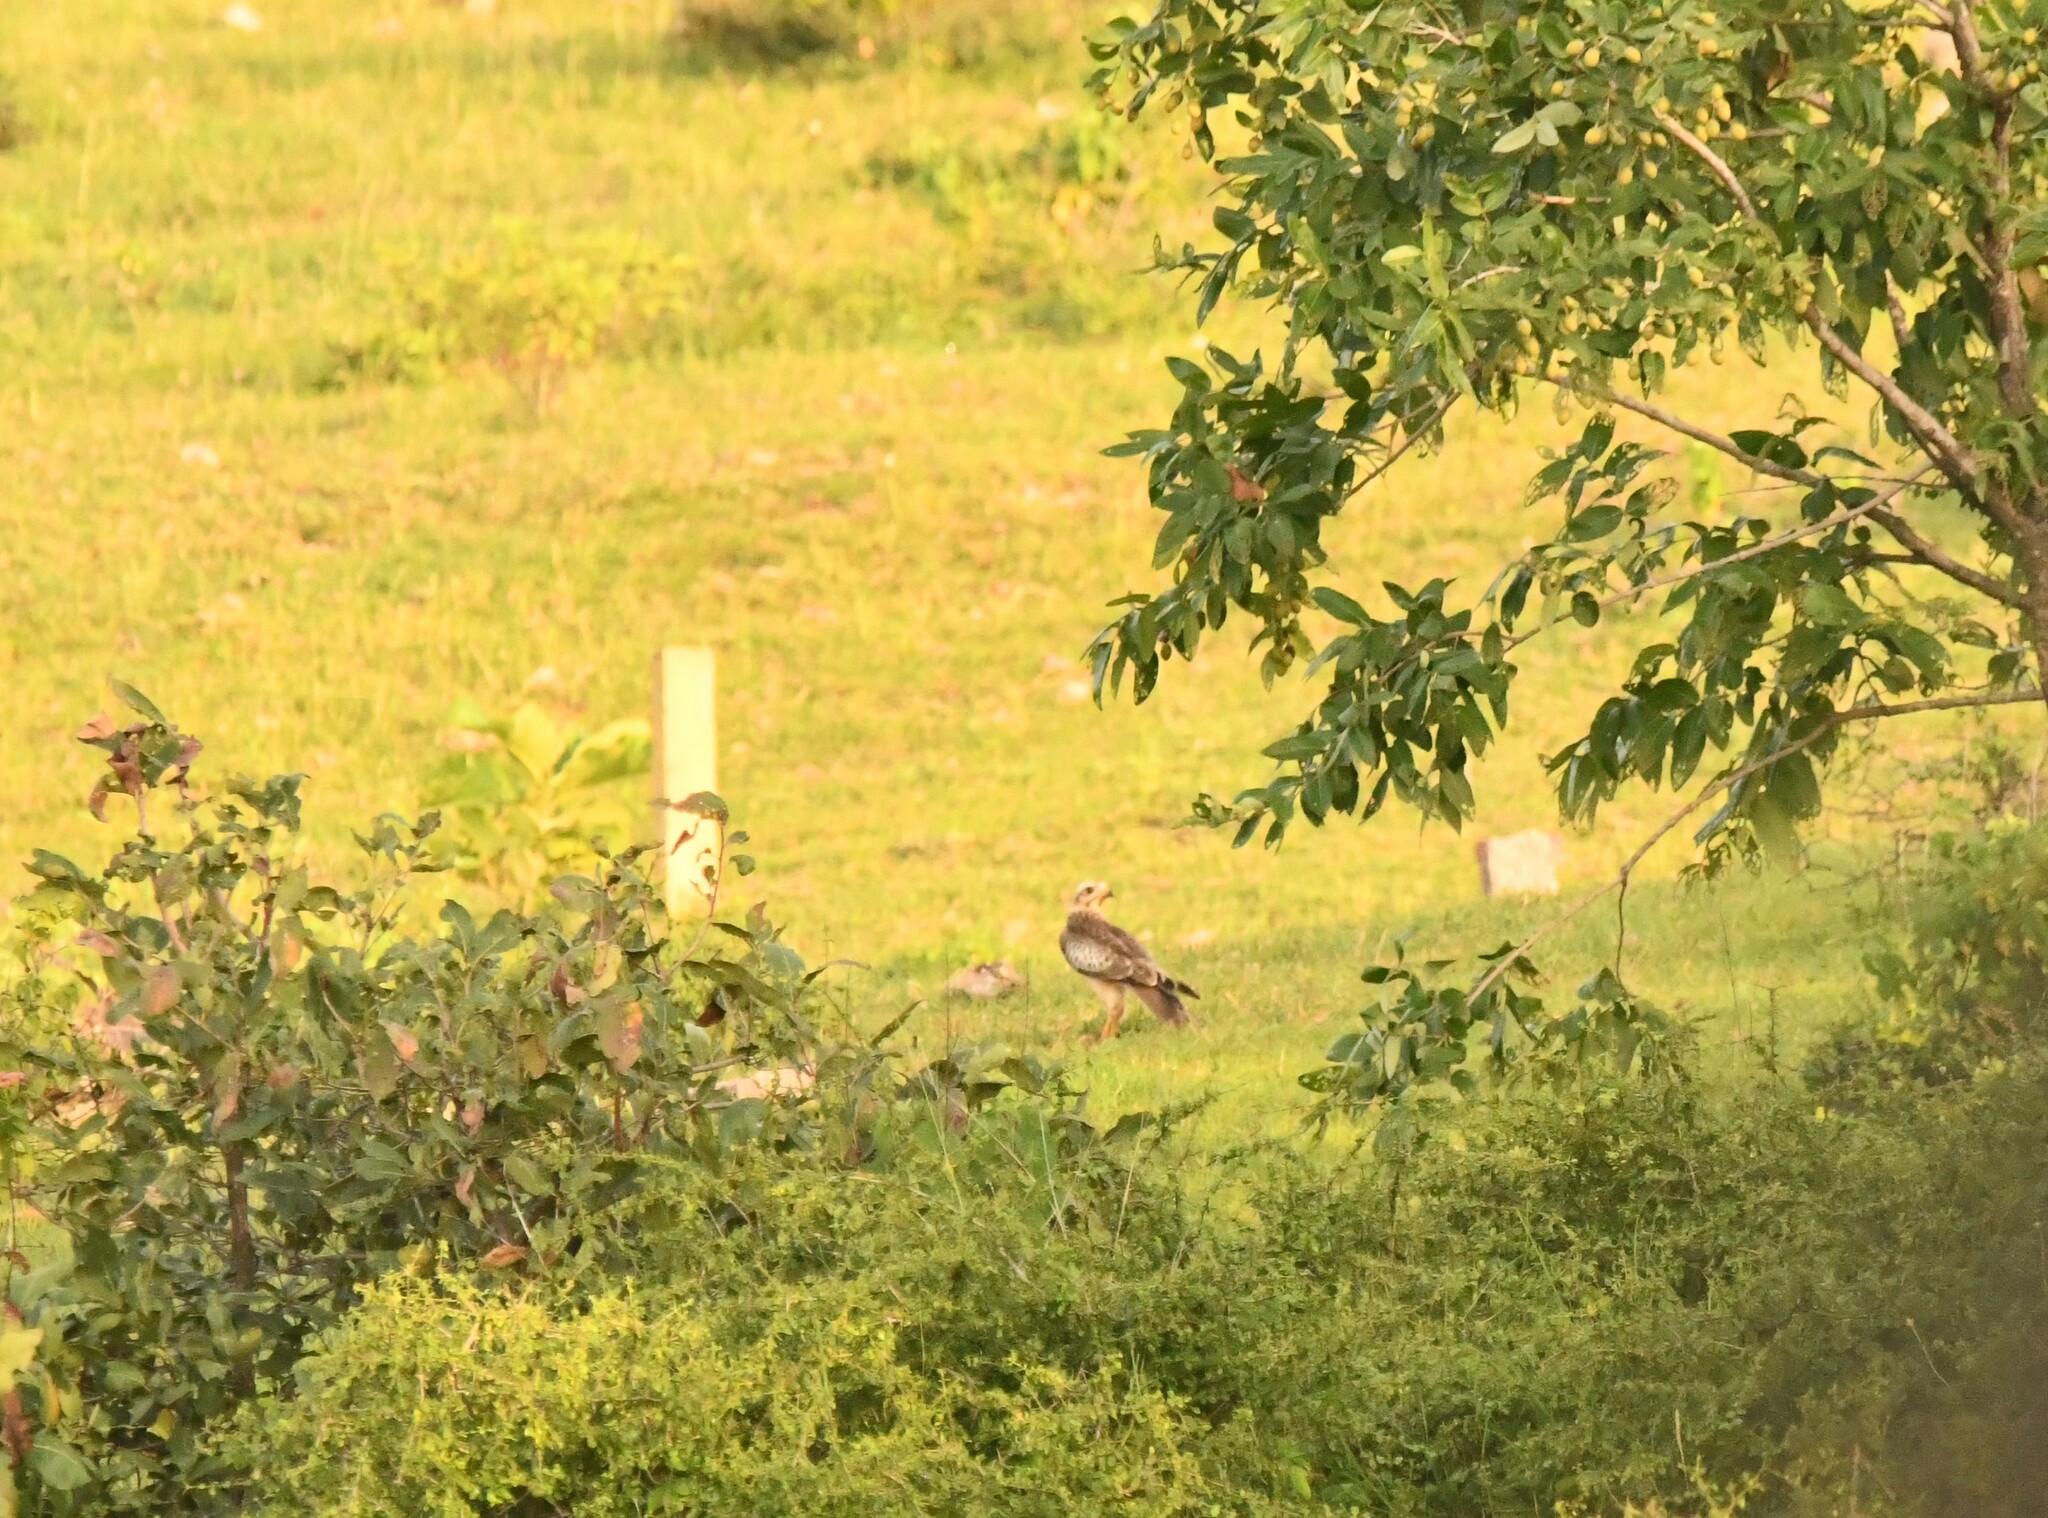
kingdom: Animalia
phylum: Chordata
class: Aves
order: Accipitriformes
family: Accipitridae
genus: Butastur
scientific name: Butastur teesa
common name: White-eyed buzzard
